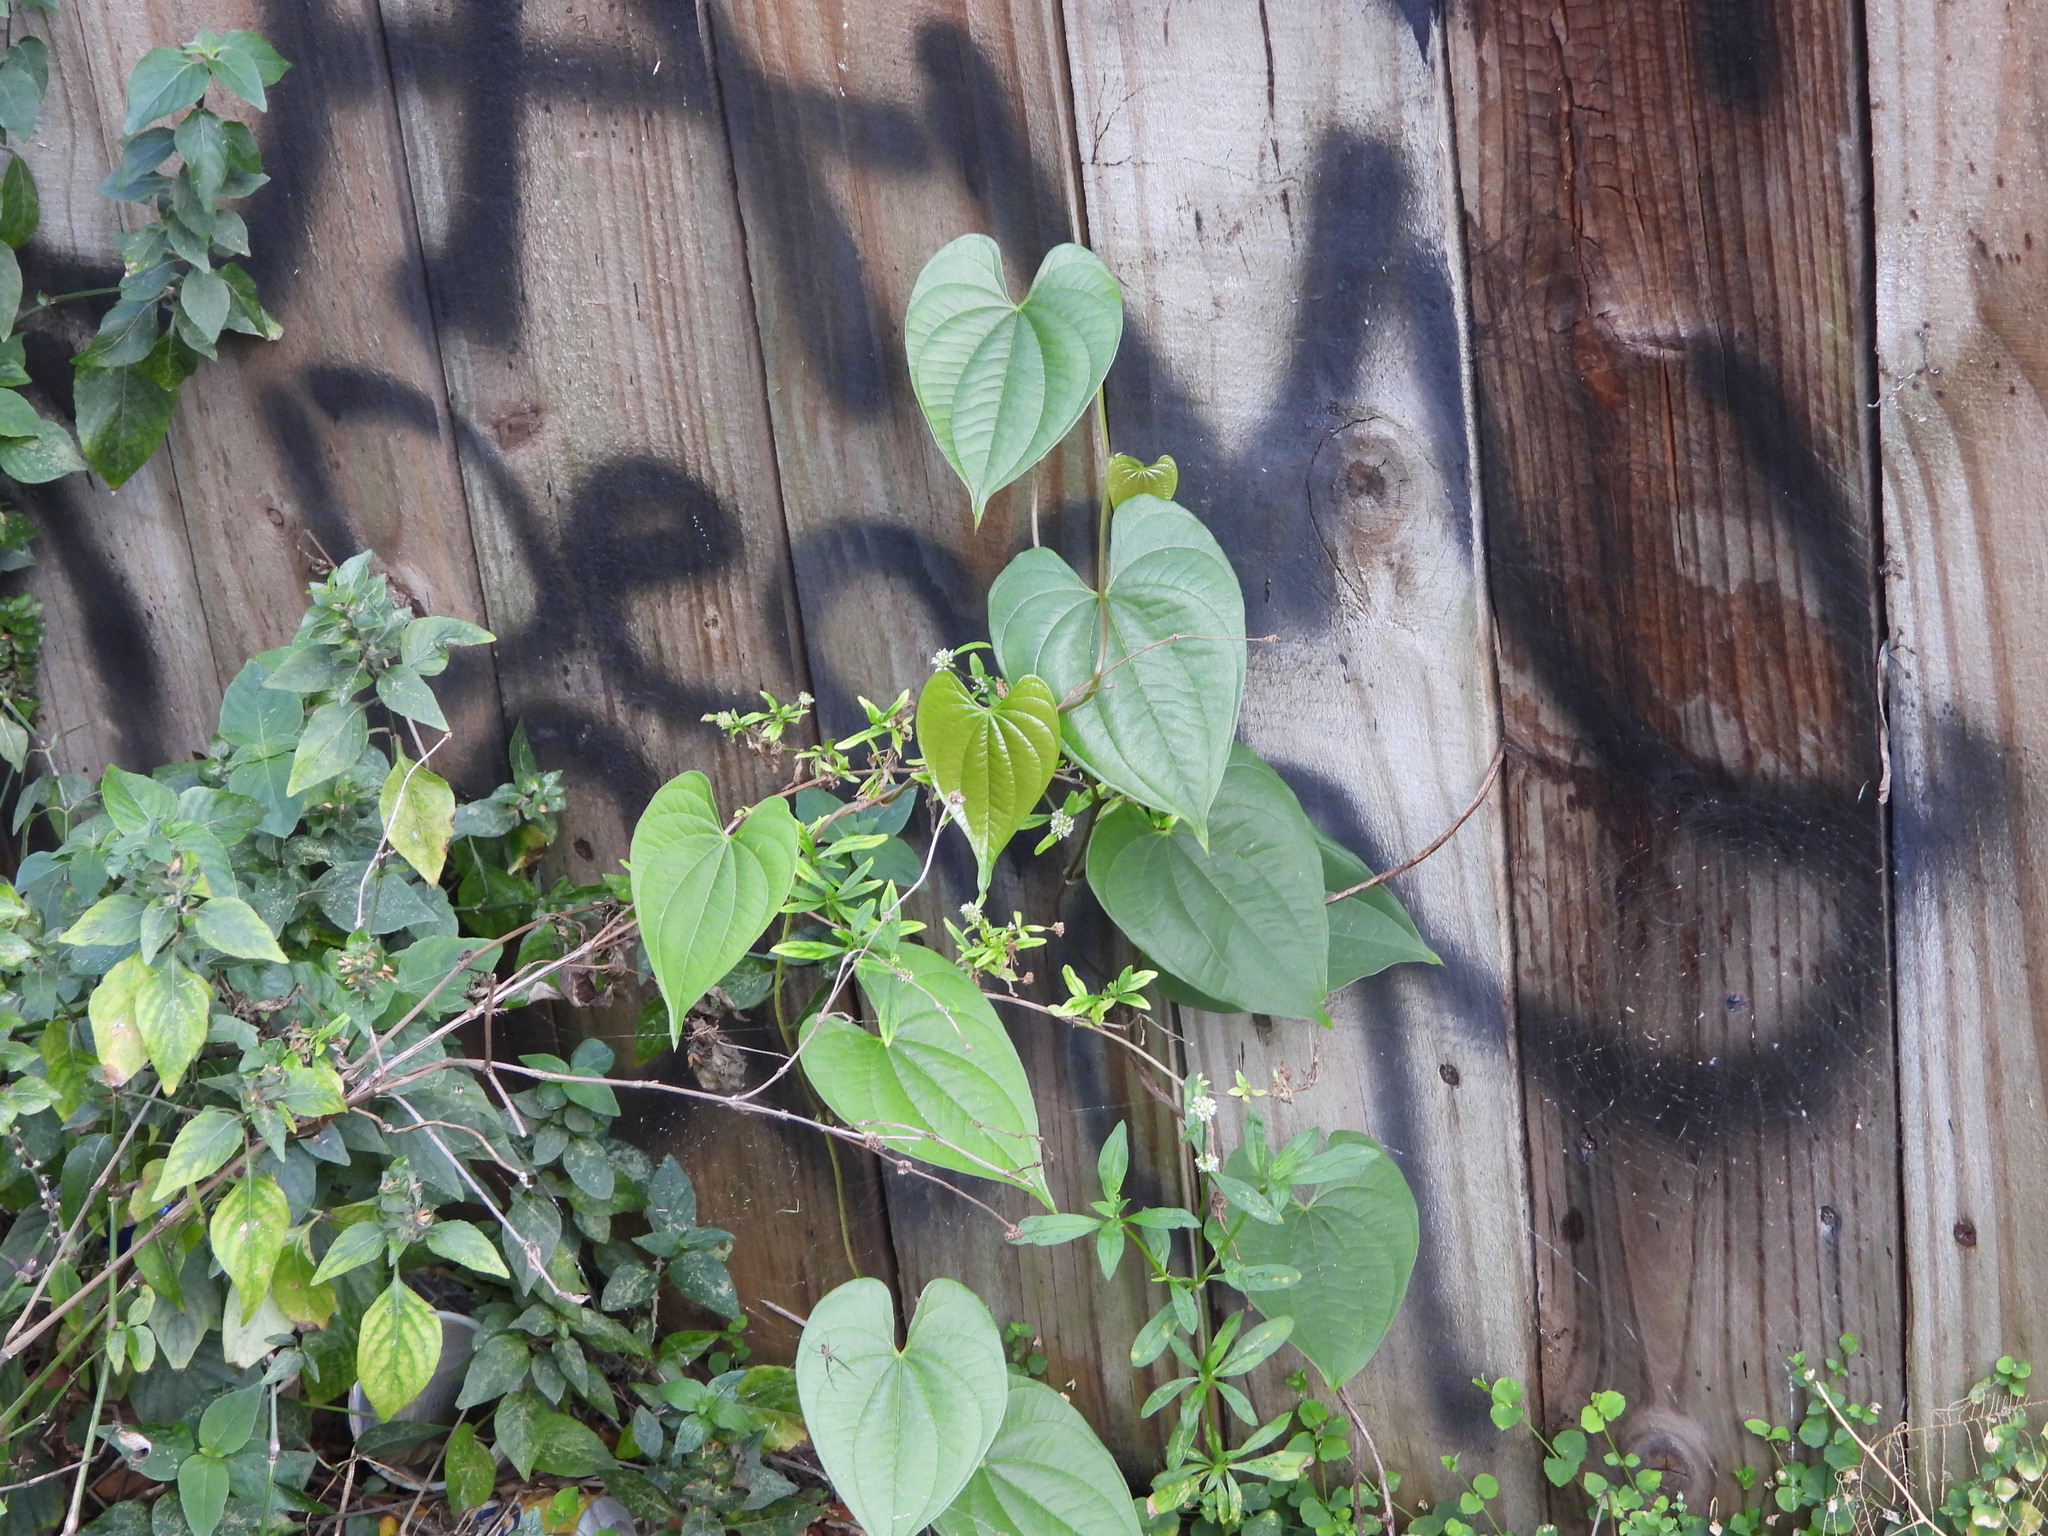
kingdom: Plantae
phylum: Tracheophyta
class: Liliopsida
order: Dioscoreales
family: Dioscoreaceae
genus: Dioscorea
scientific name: Dioscorea bulbifera
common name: Air yam
